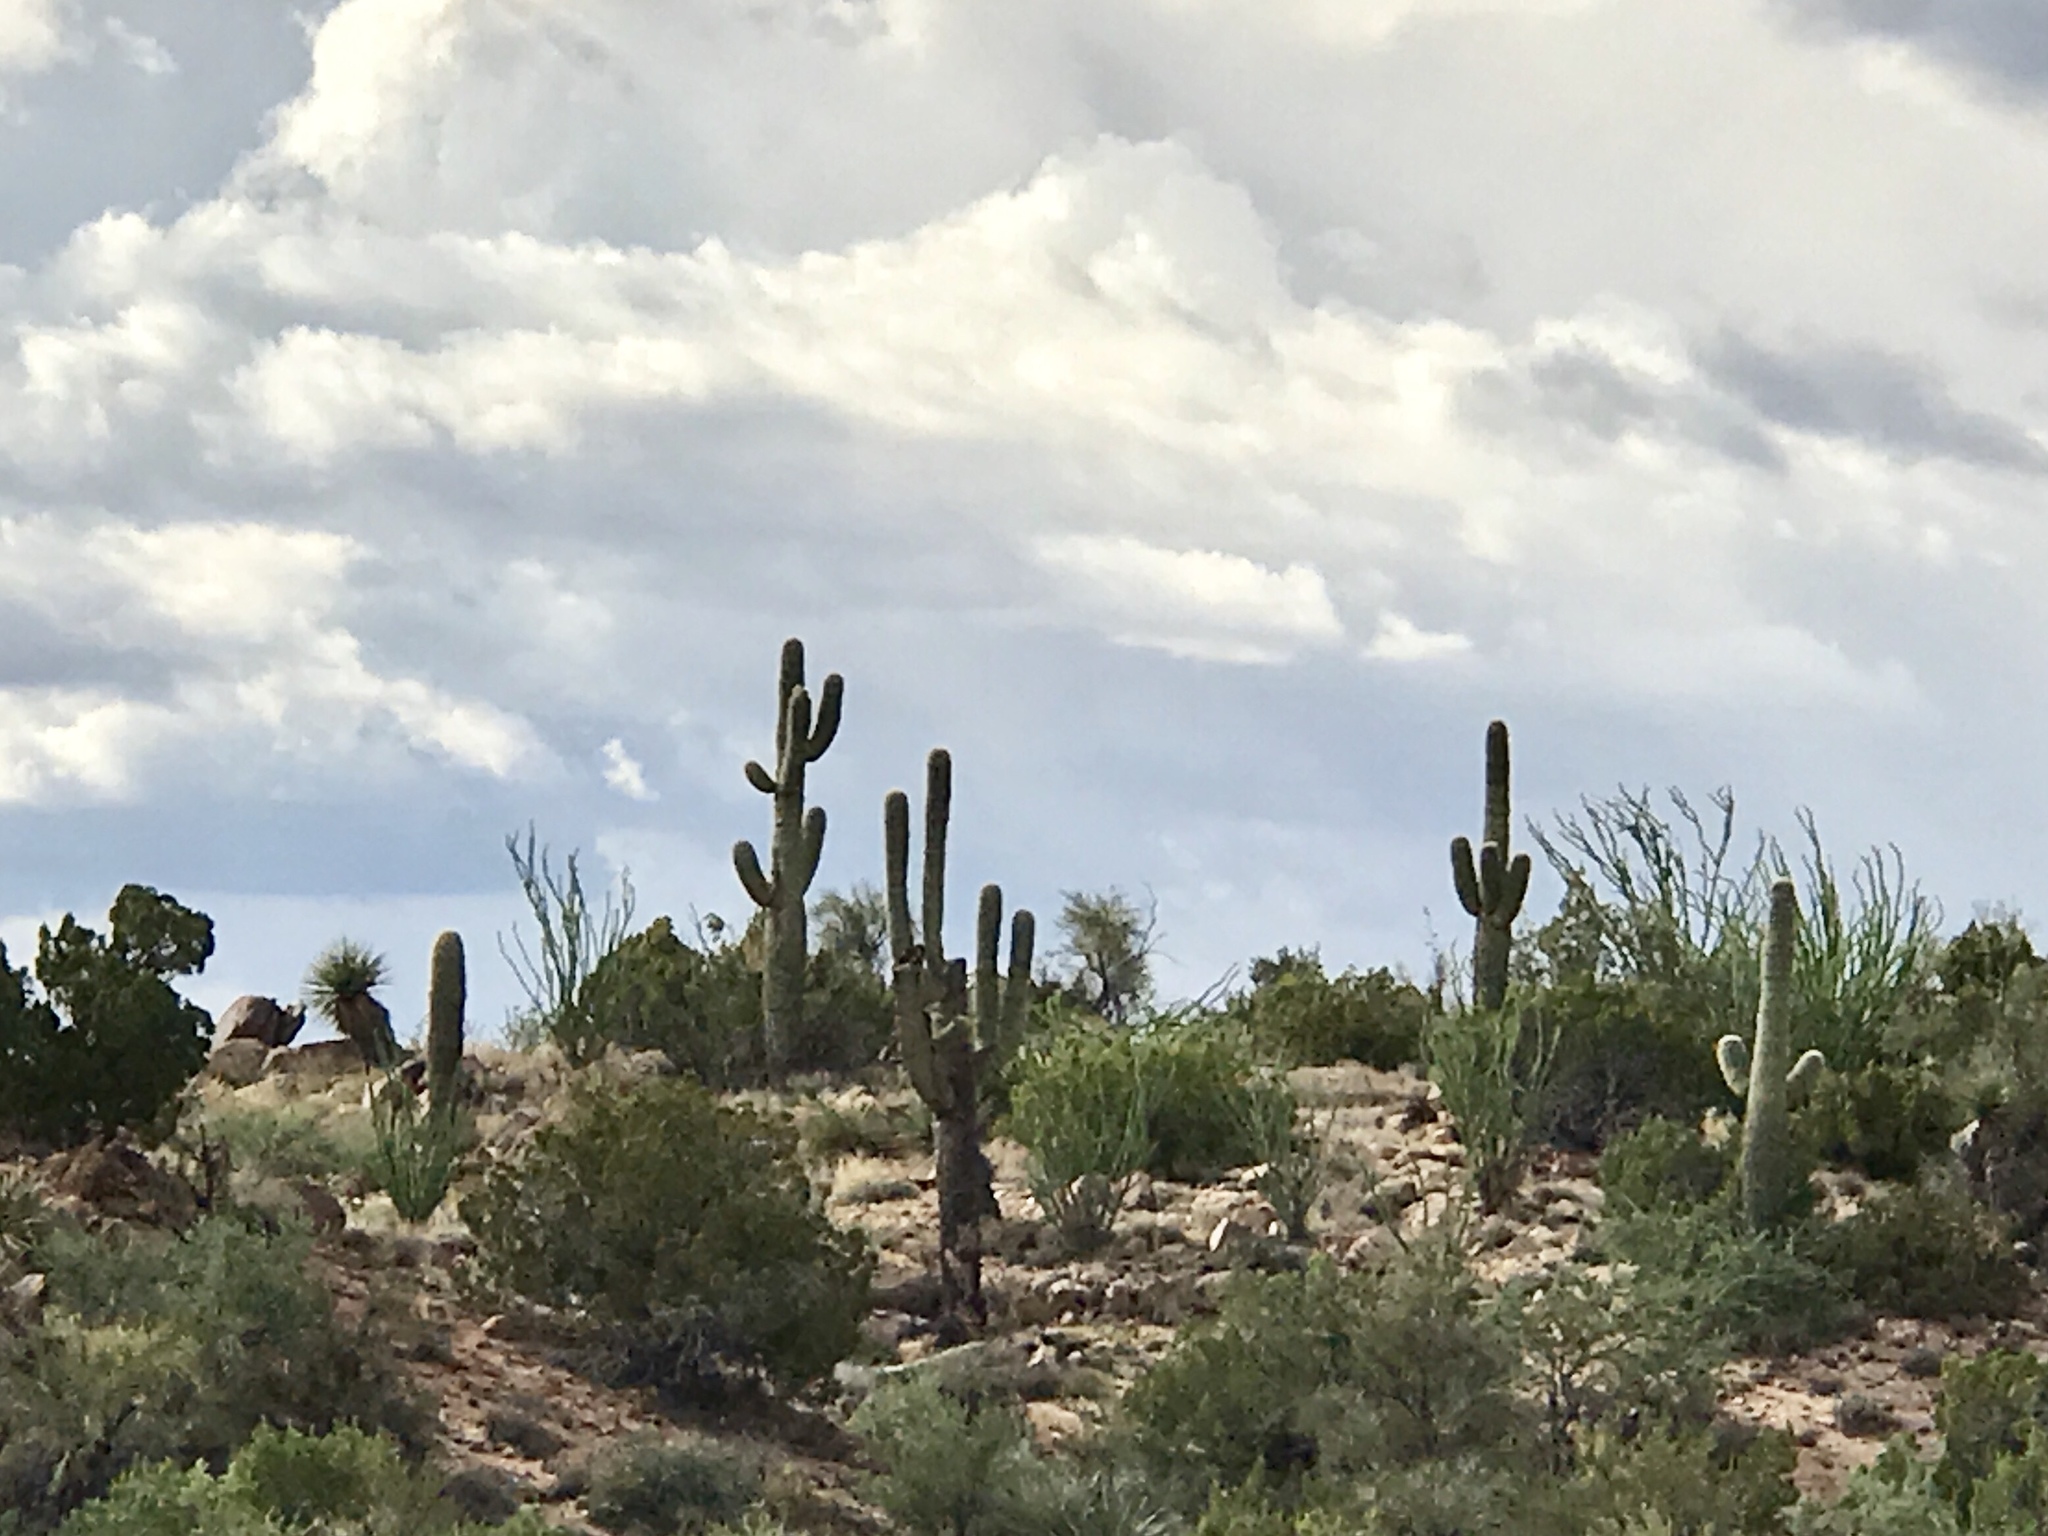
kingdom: Plantae
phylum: Tracheophyta
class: Magnoliopsida
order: Caryophyllales
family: Cactaceae
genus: Carnegiea
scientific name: Carnegiea gigantea
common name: Saguaro
